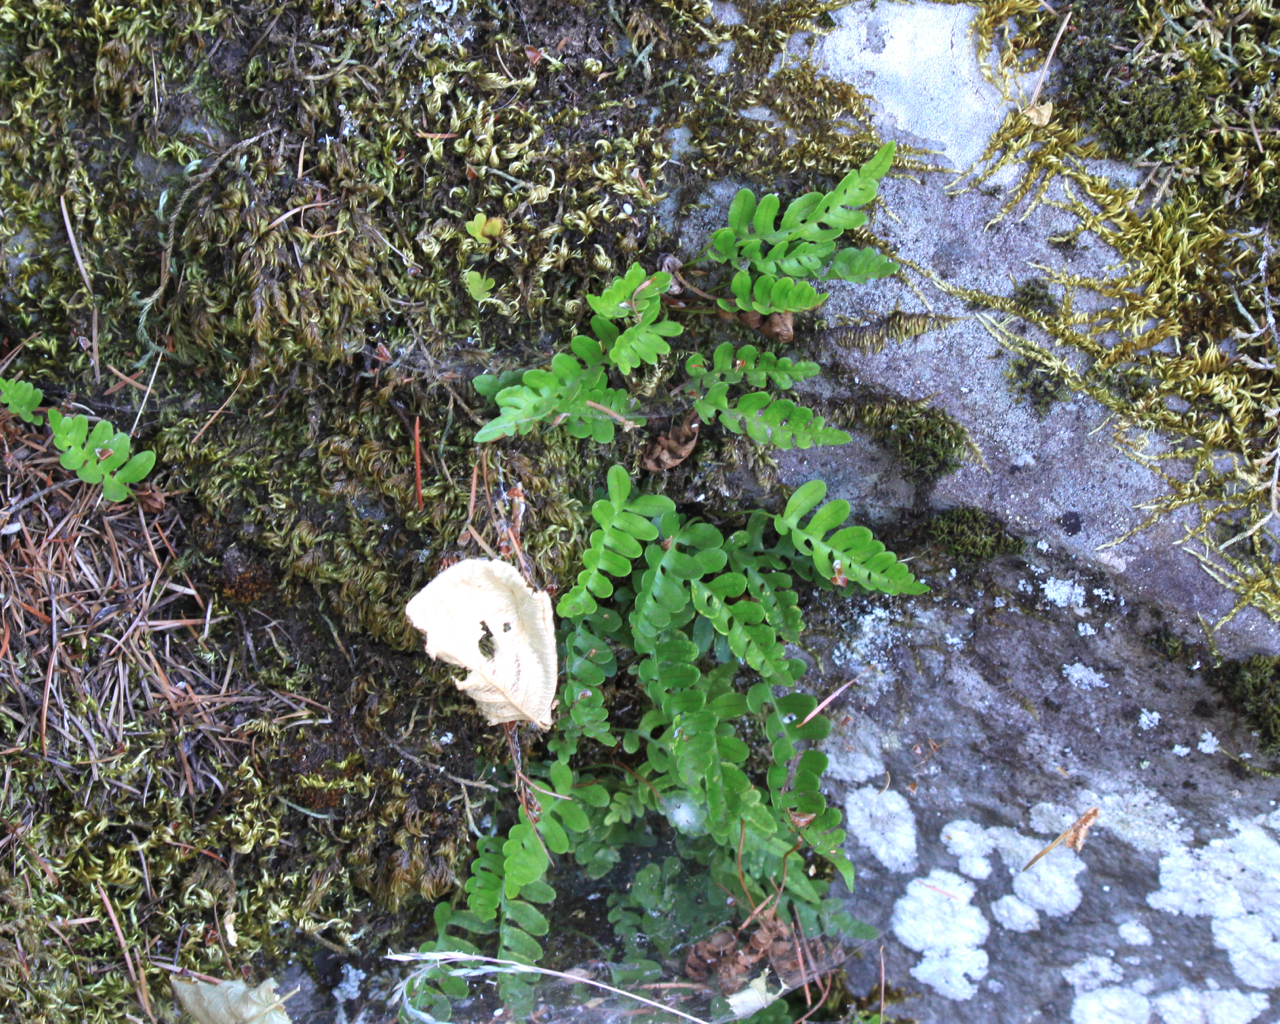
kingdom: Plantae
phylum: Tracheophyta
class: Polypodiopsida
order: Polypodiales
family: Polypodiaceae
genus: Polypodium
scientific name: Polypodium amorphum
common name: Pacific polypody
